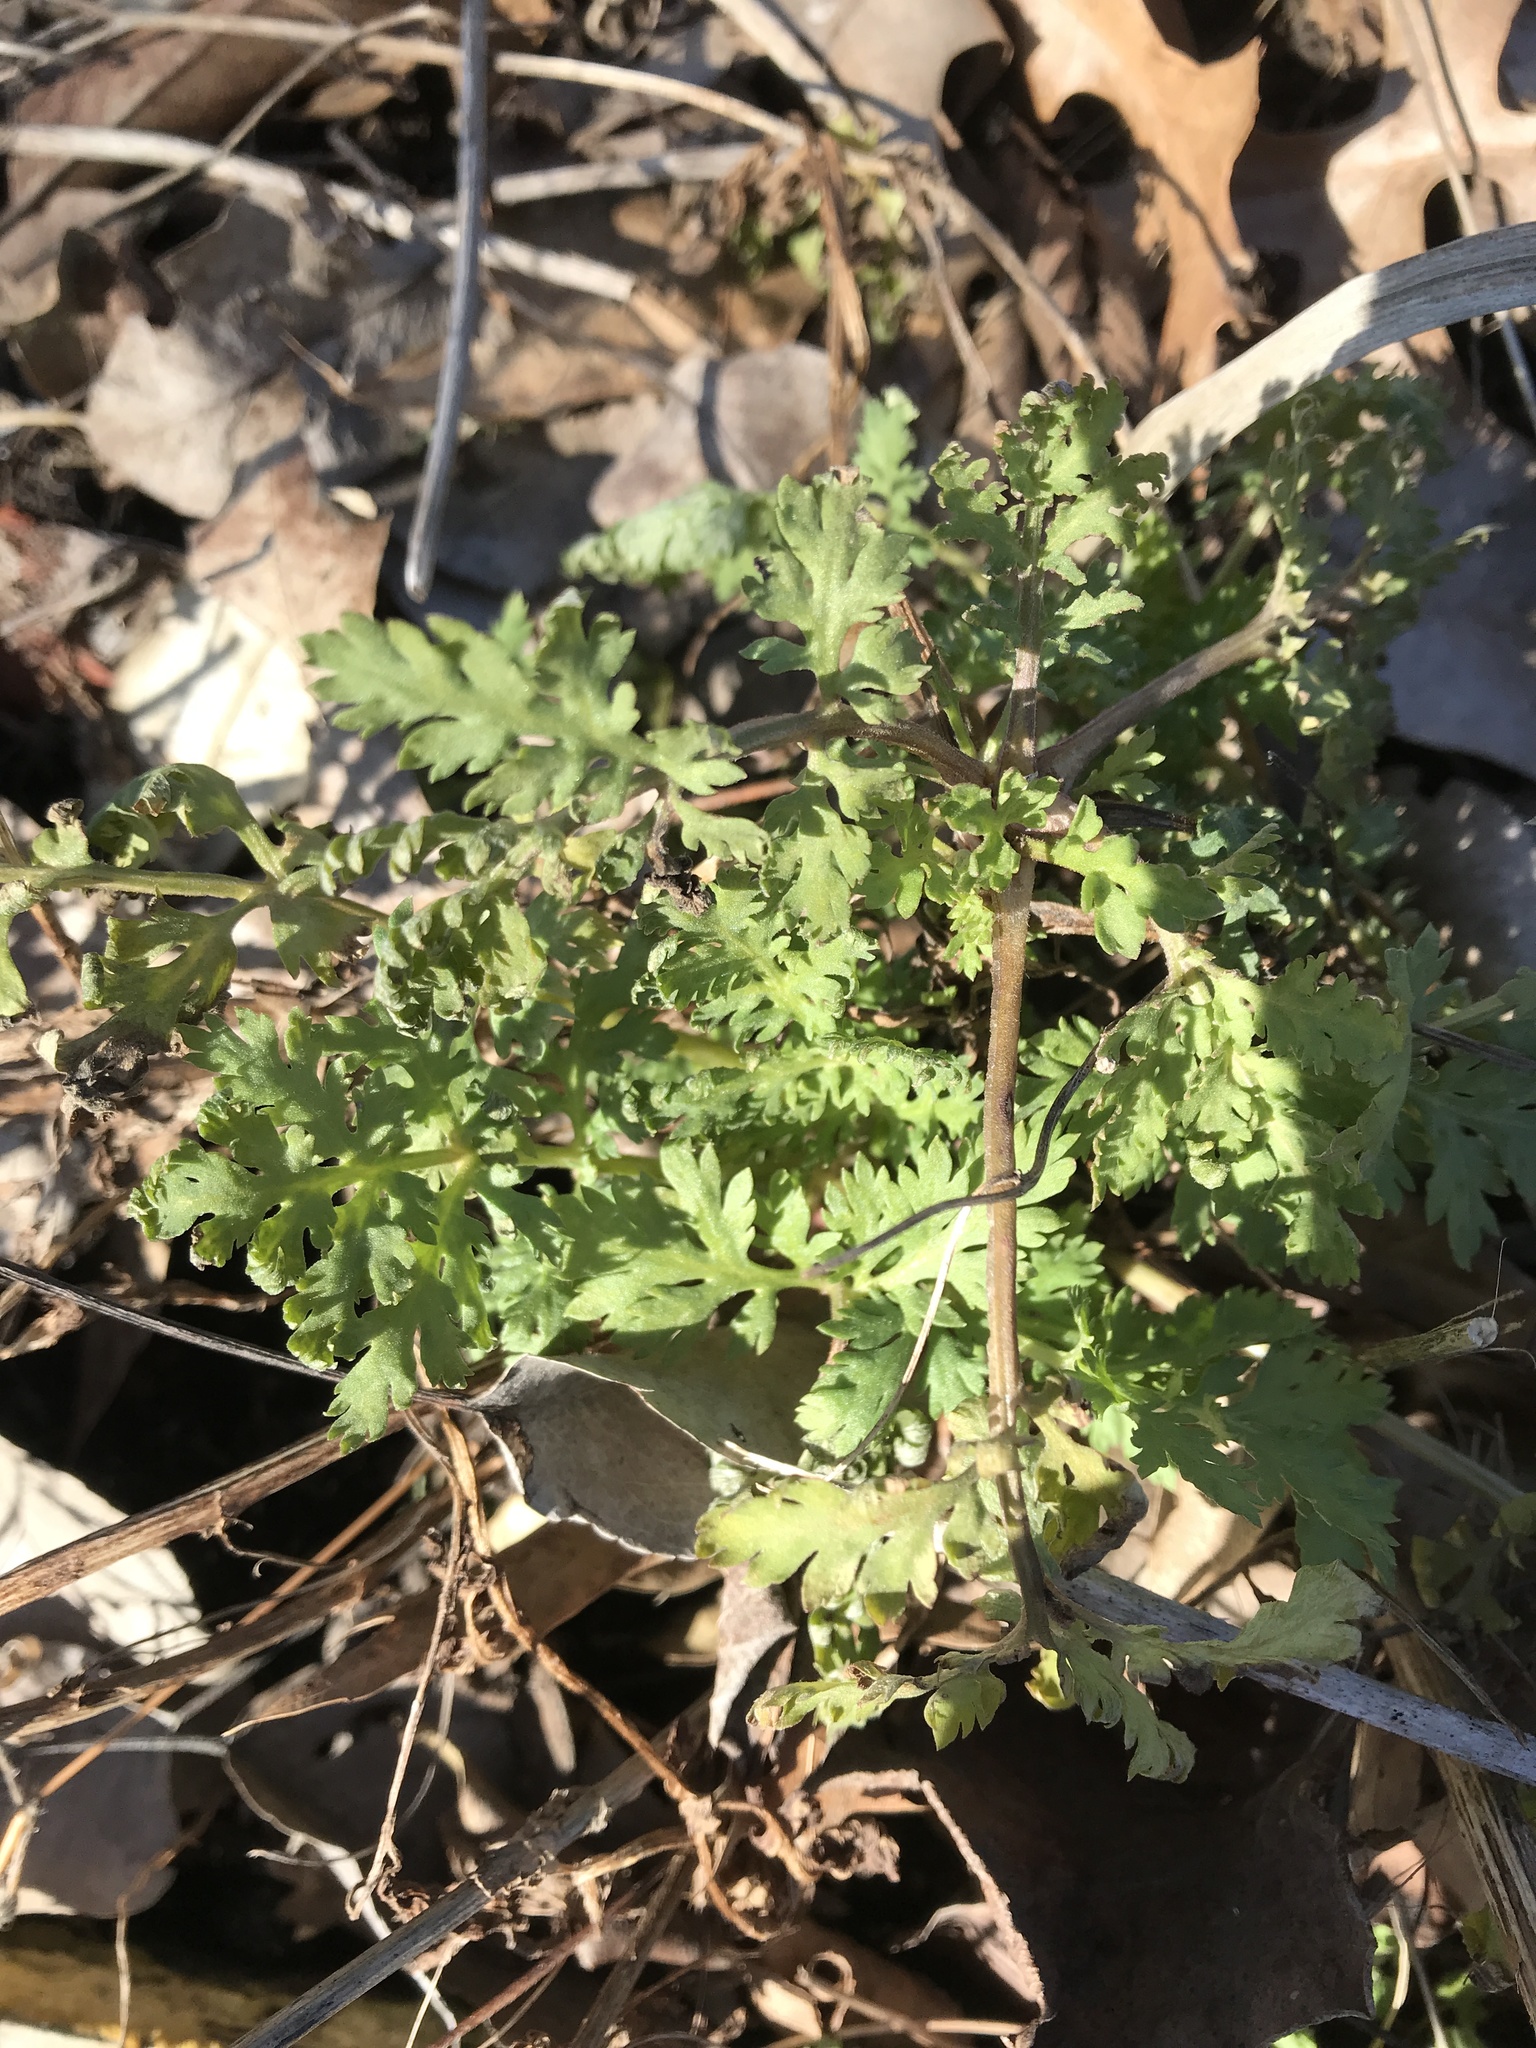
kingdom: Plantae
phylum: Tracheophyta
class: Magnoliopsida
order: Asterales
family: Asteraceae
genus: Tanacetum
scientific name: Tanacetum parthenium
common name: Feverfew
